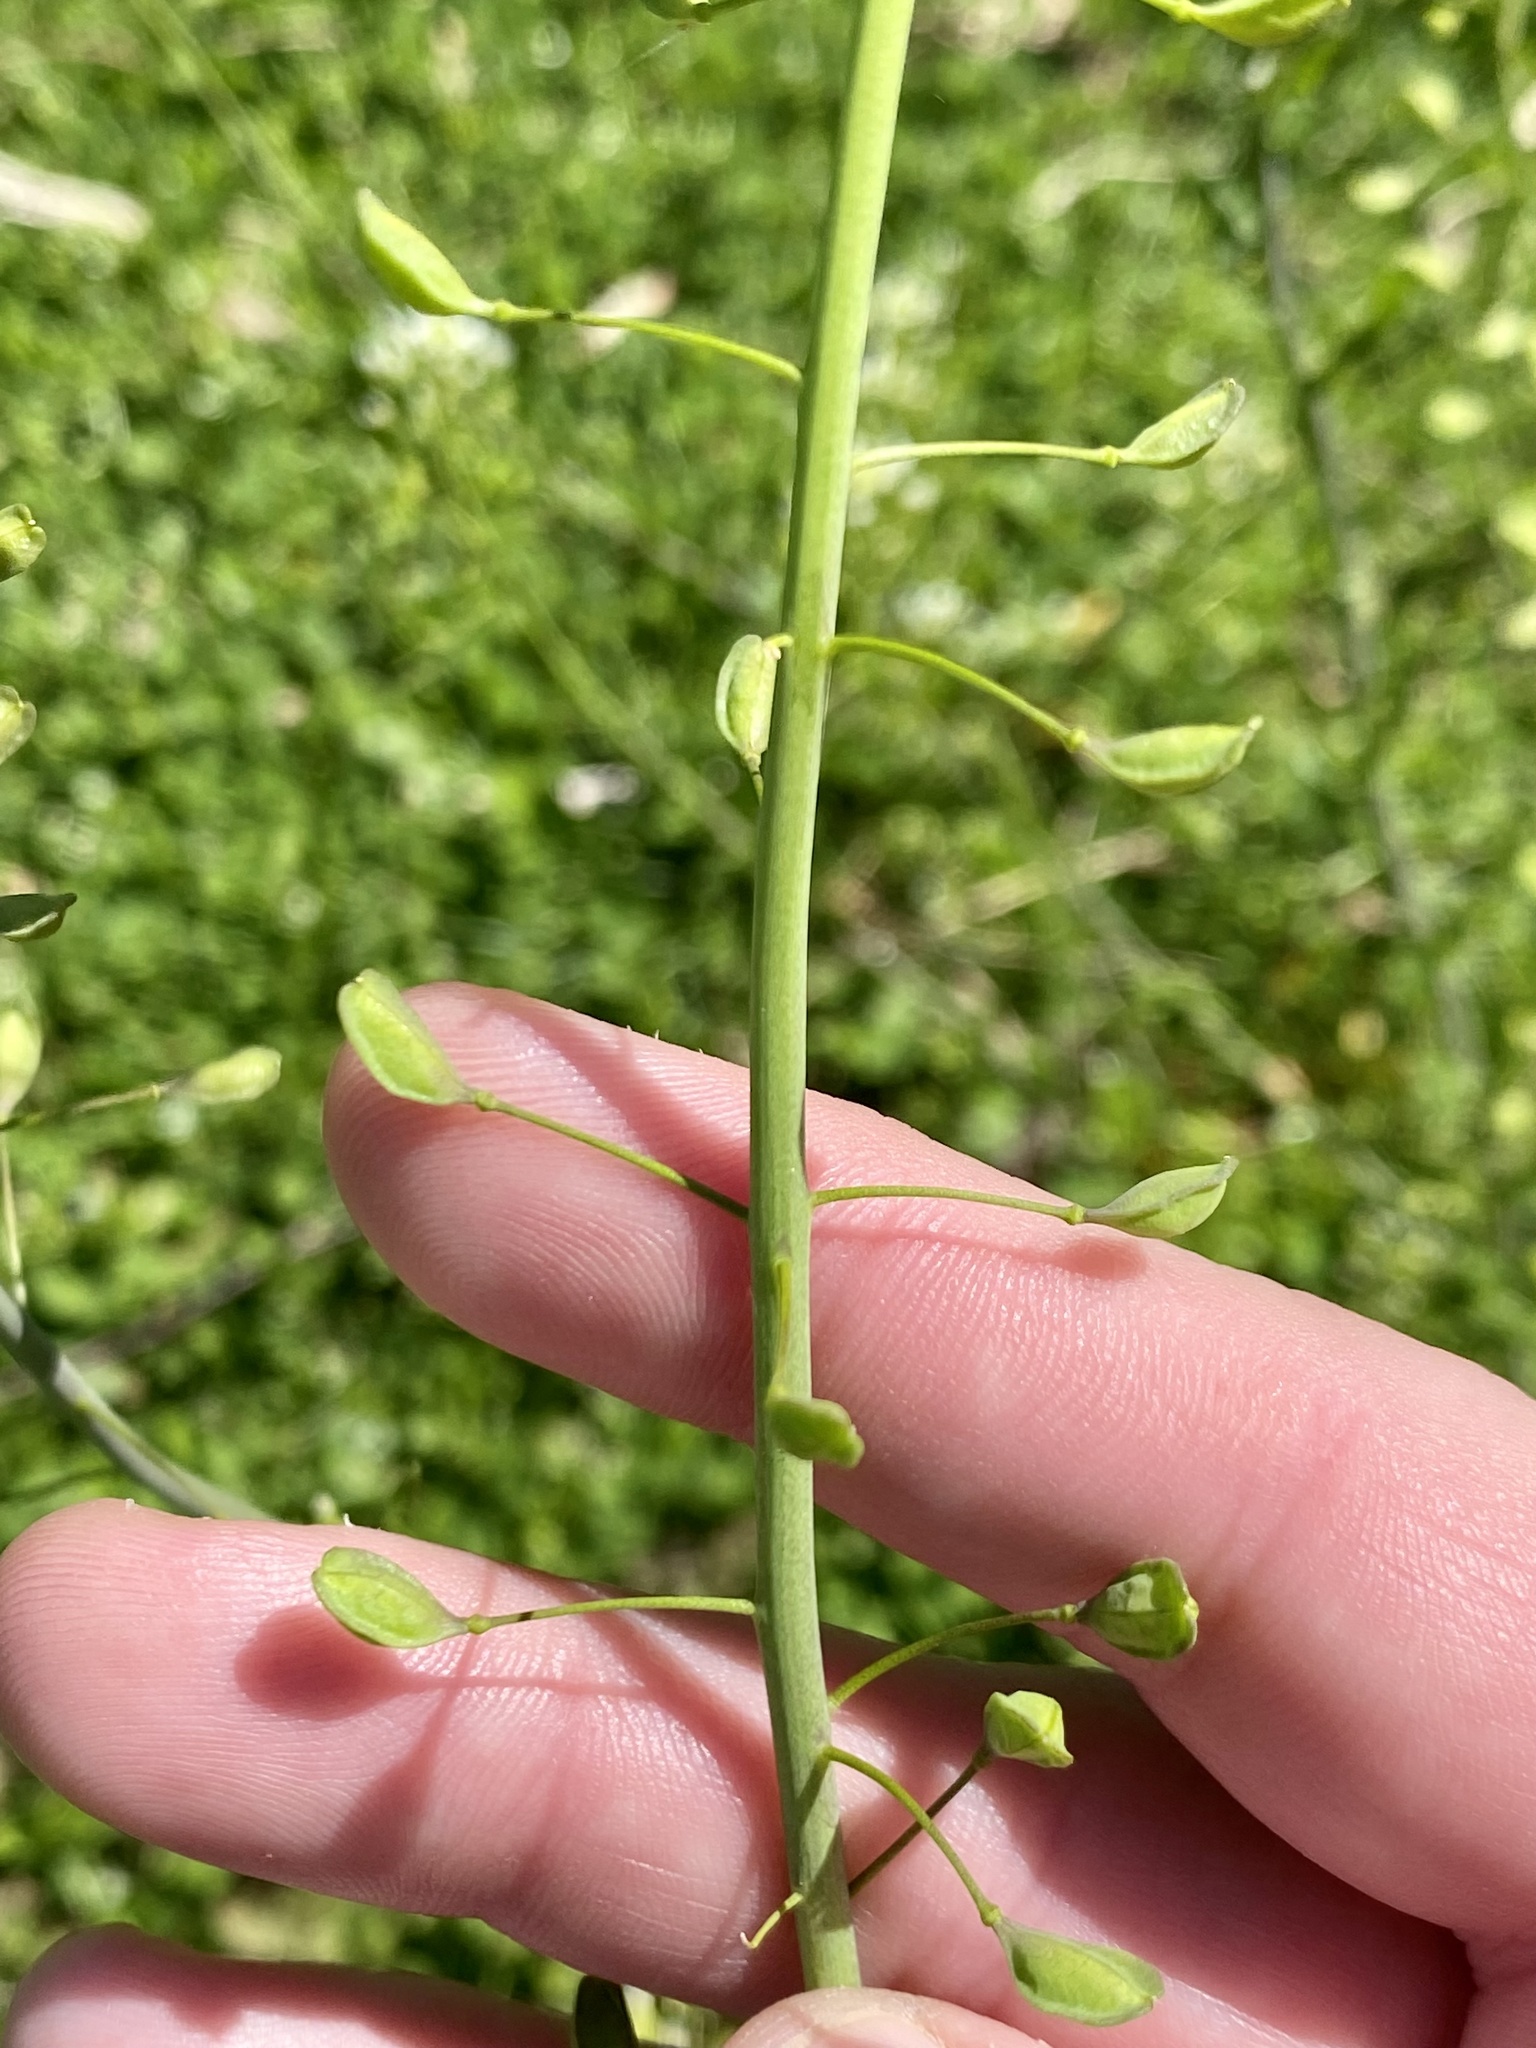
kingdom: Plantae
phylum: Tracheophyta
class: Magnoliopsida
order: Brassicales
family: Brassicaceae
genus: Mummenhoffia
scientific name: Mummenhoffia alliacea
